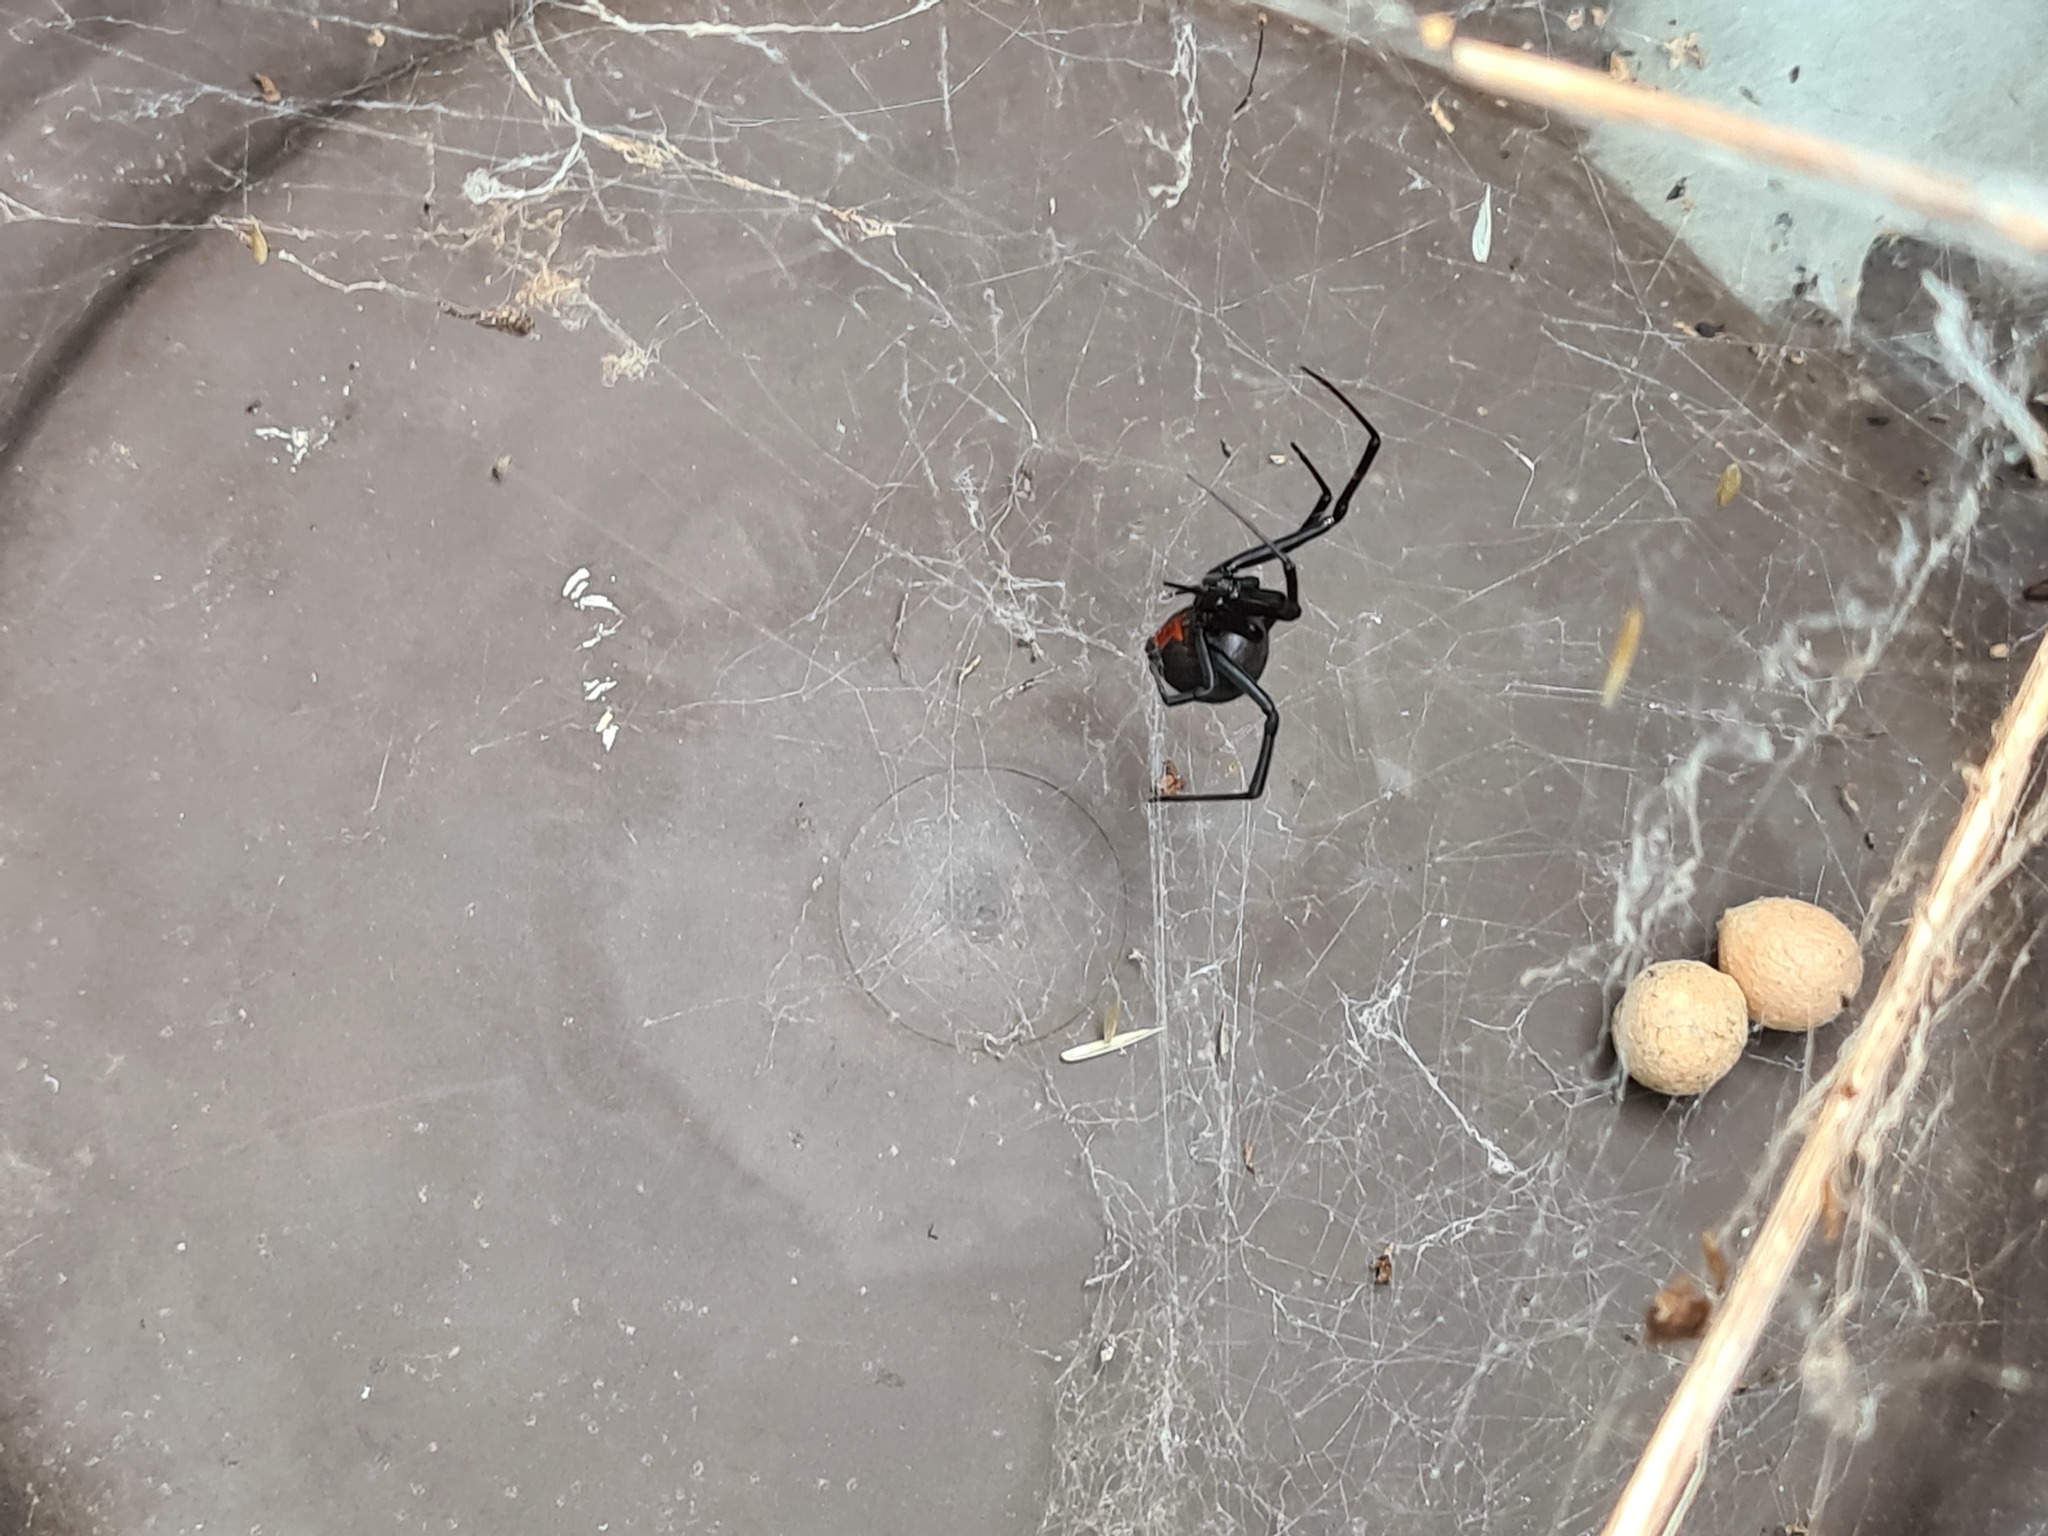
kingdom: Animalia
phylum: Arthropoda
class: Arachnida
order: Araneae
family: Theridiidae
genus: Latrodectus
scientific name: Latrodectus hasselti
